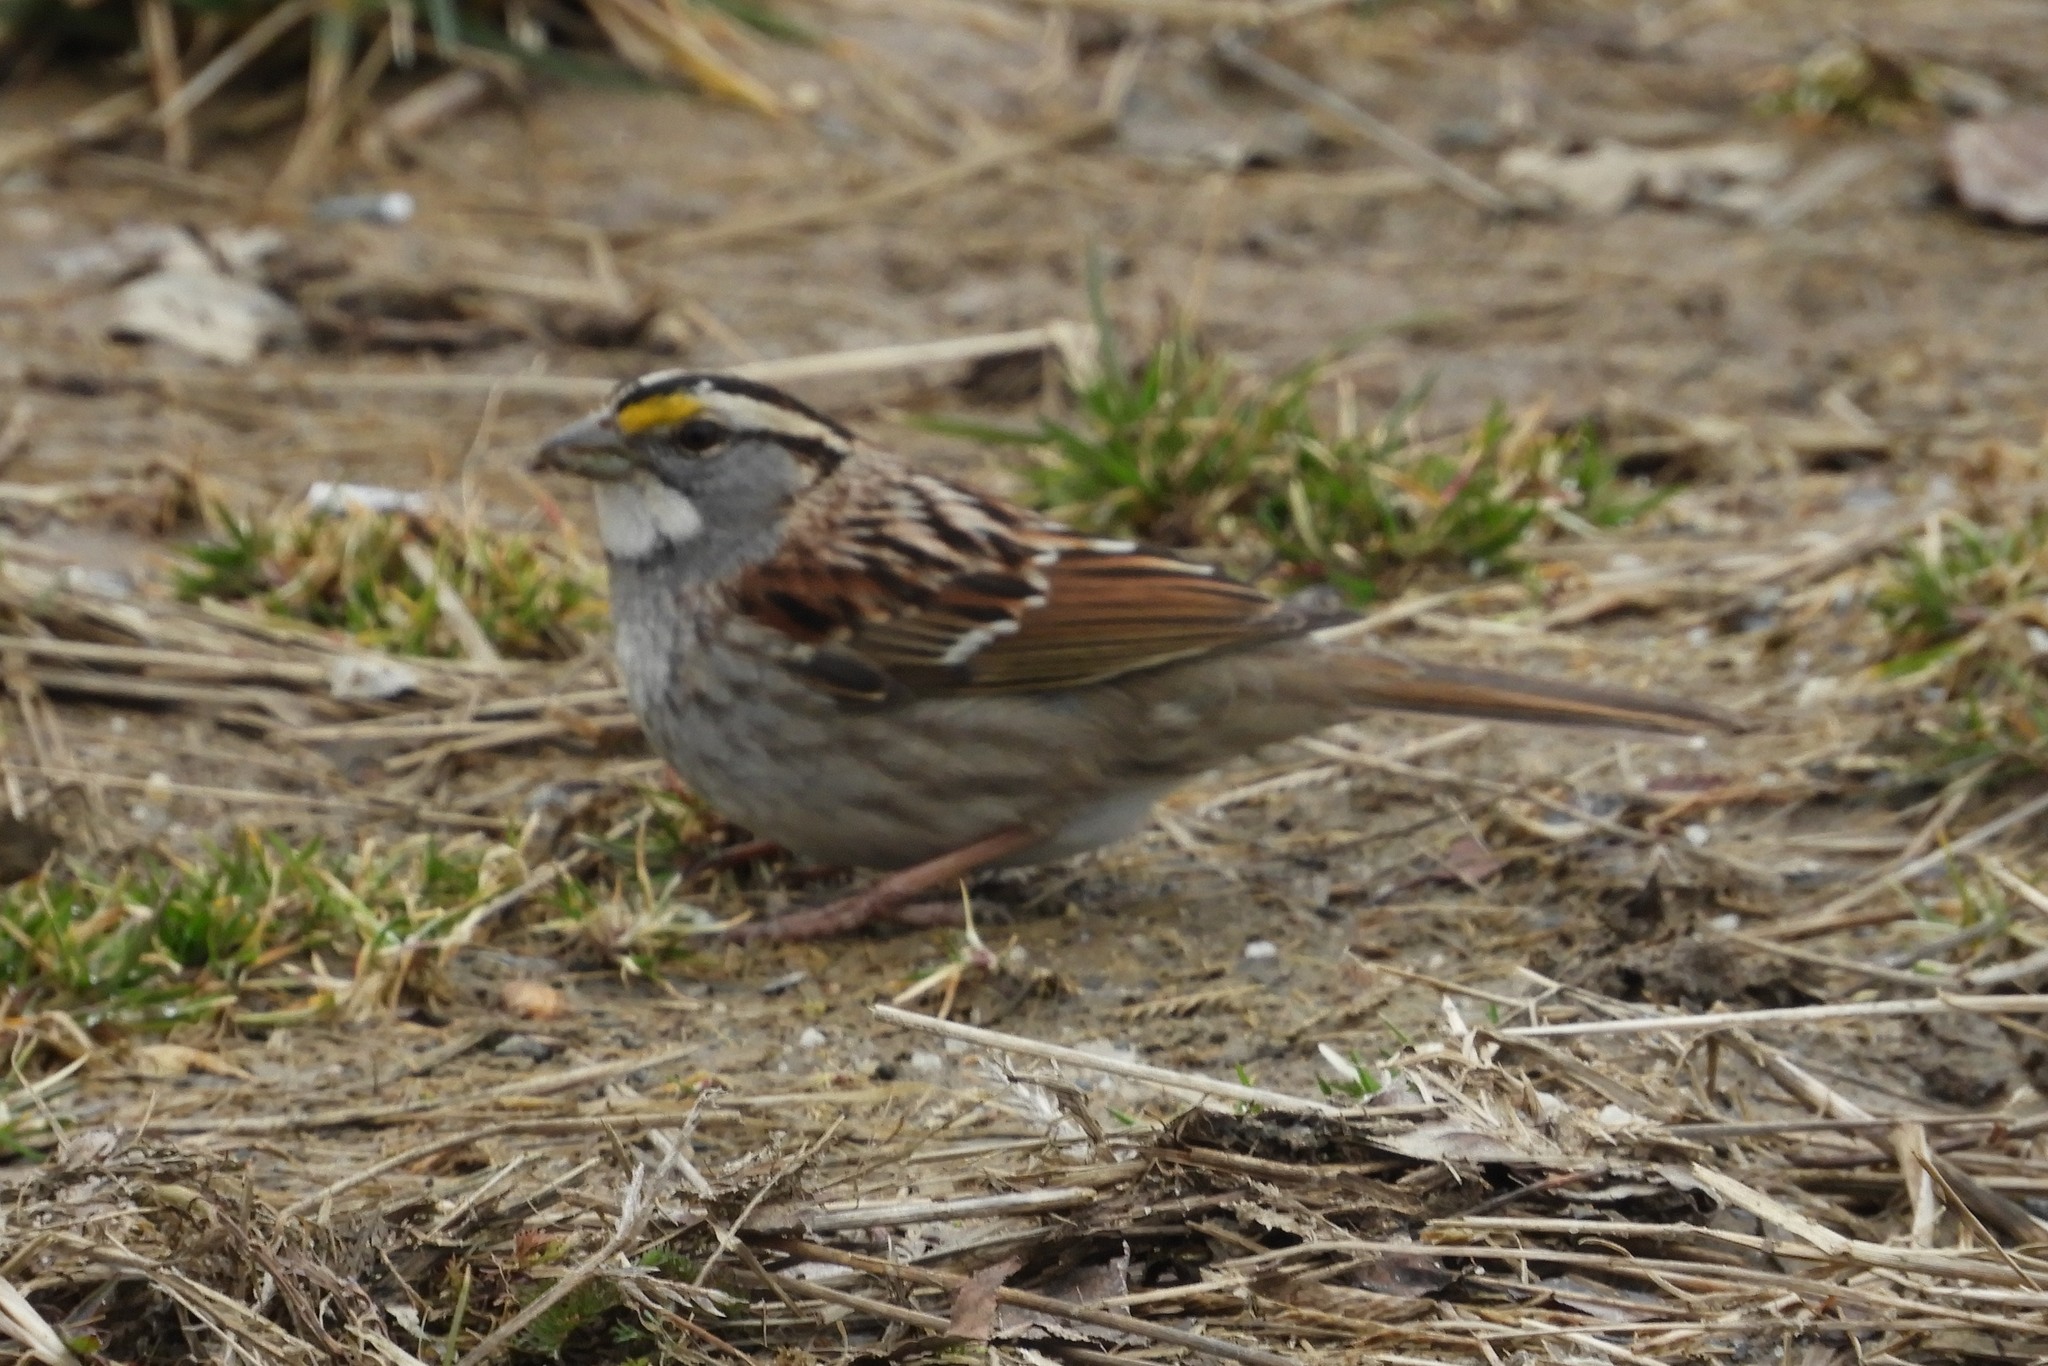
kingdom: Animalia
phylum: Chordata
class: Aves
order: Passeriformes
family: Passerellidae
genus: Zonotrichia
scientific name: Zonotrichia albicollis
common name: White-throated sparrow
